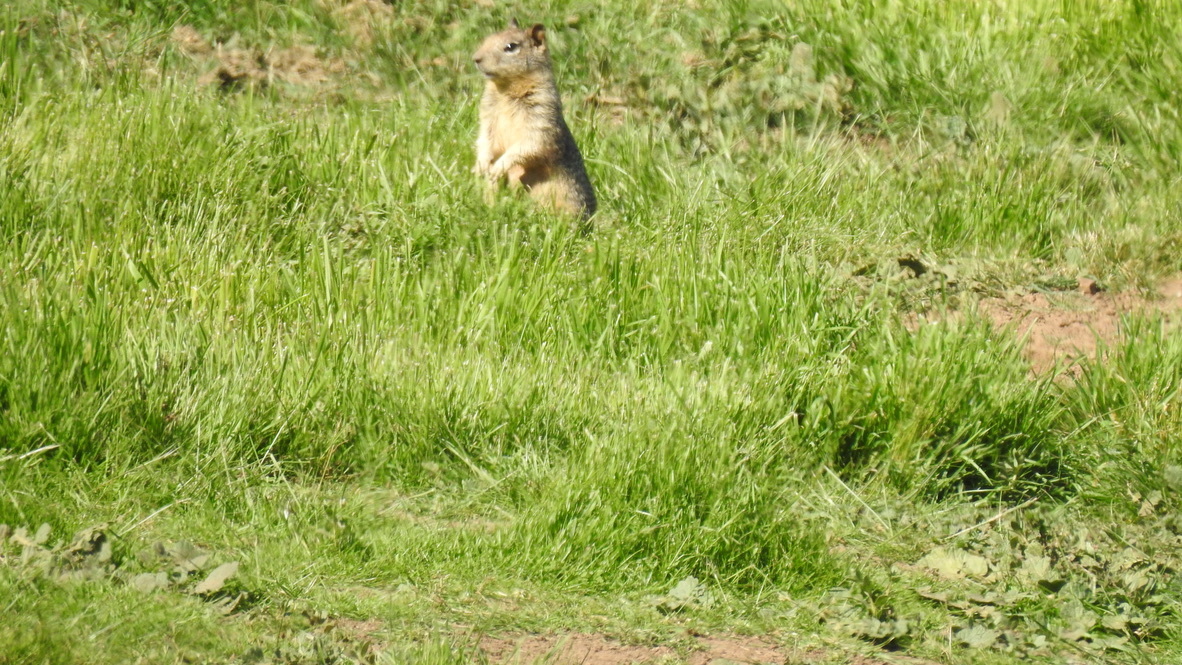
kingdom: Animalia
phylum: Chordata
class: Mammalia
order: Rodentia
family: Sciuridae
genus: Otospermophilus
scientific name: Otospermophilus beecheyi
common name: California ground squirrel
